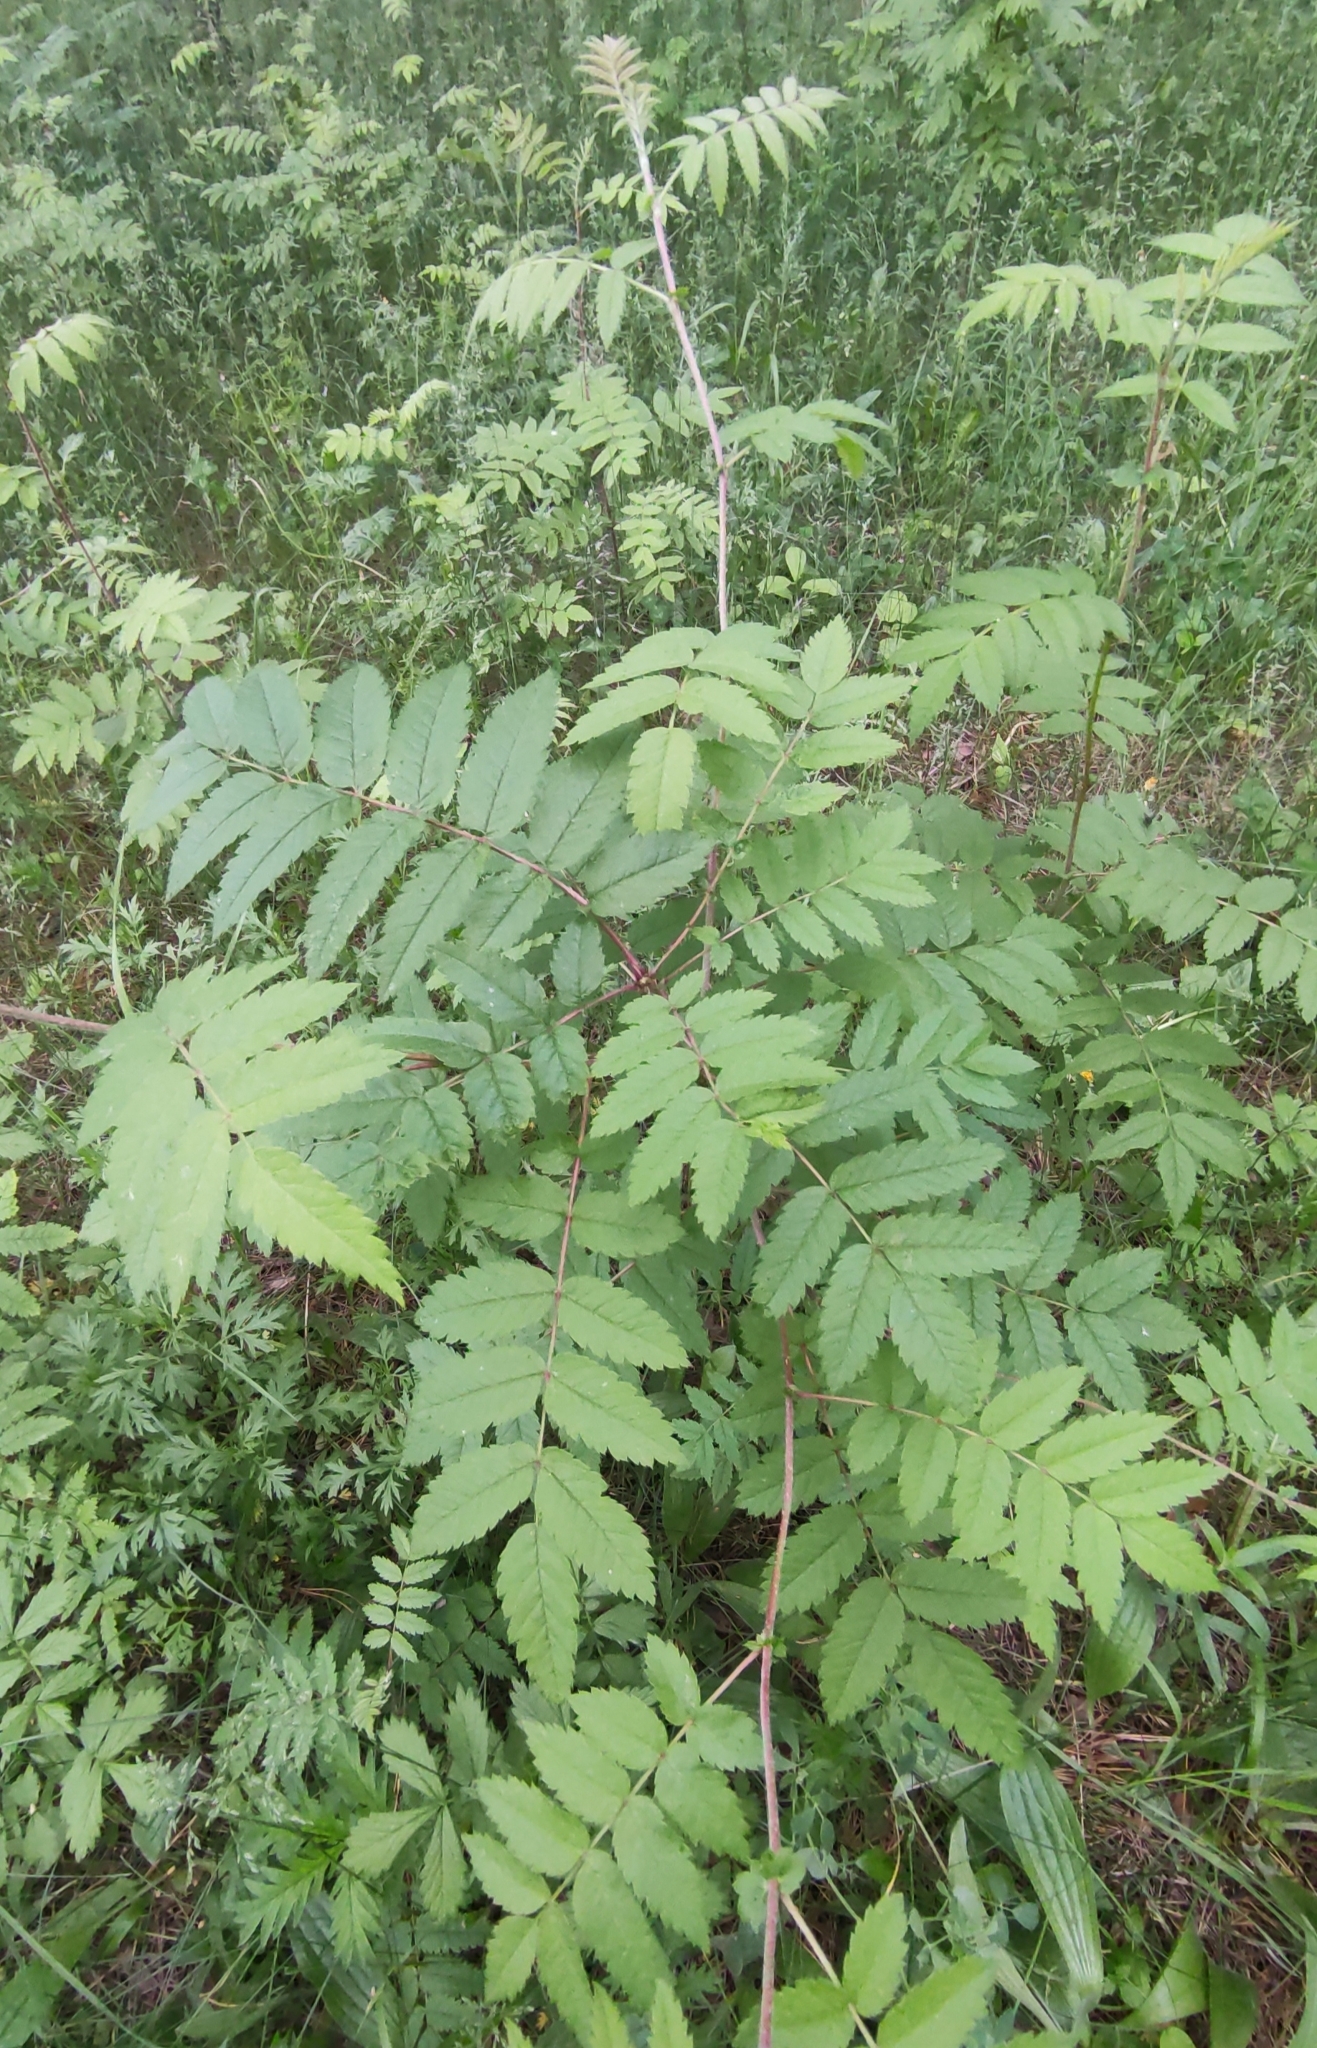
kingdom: Plantae
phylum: Tracheophyta
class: Magnoliopsida
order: Rosales
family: Rosaceae
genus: Sorbus
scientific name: Sorbus aucuparia
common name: Rowan
